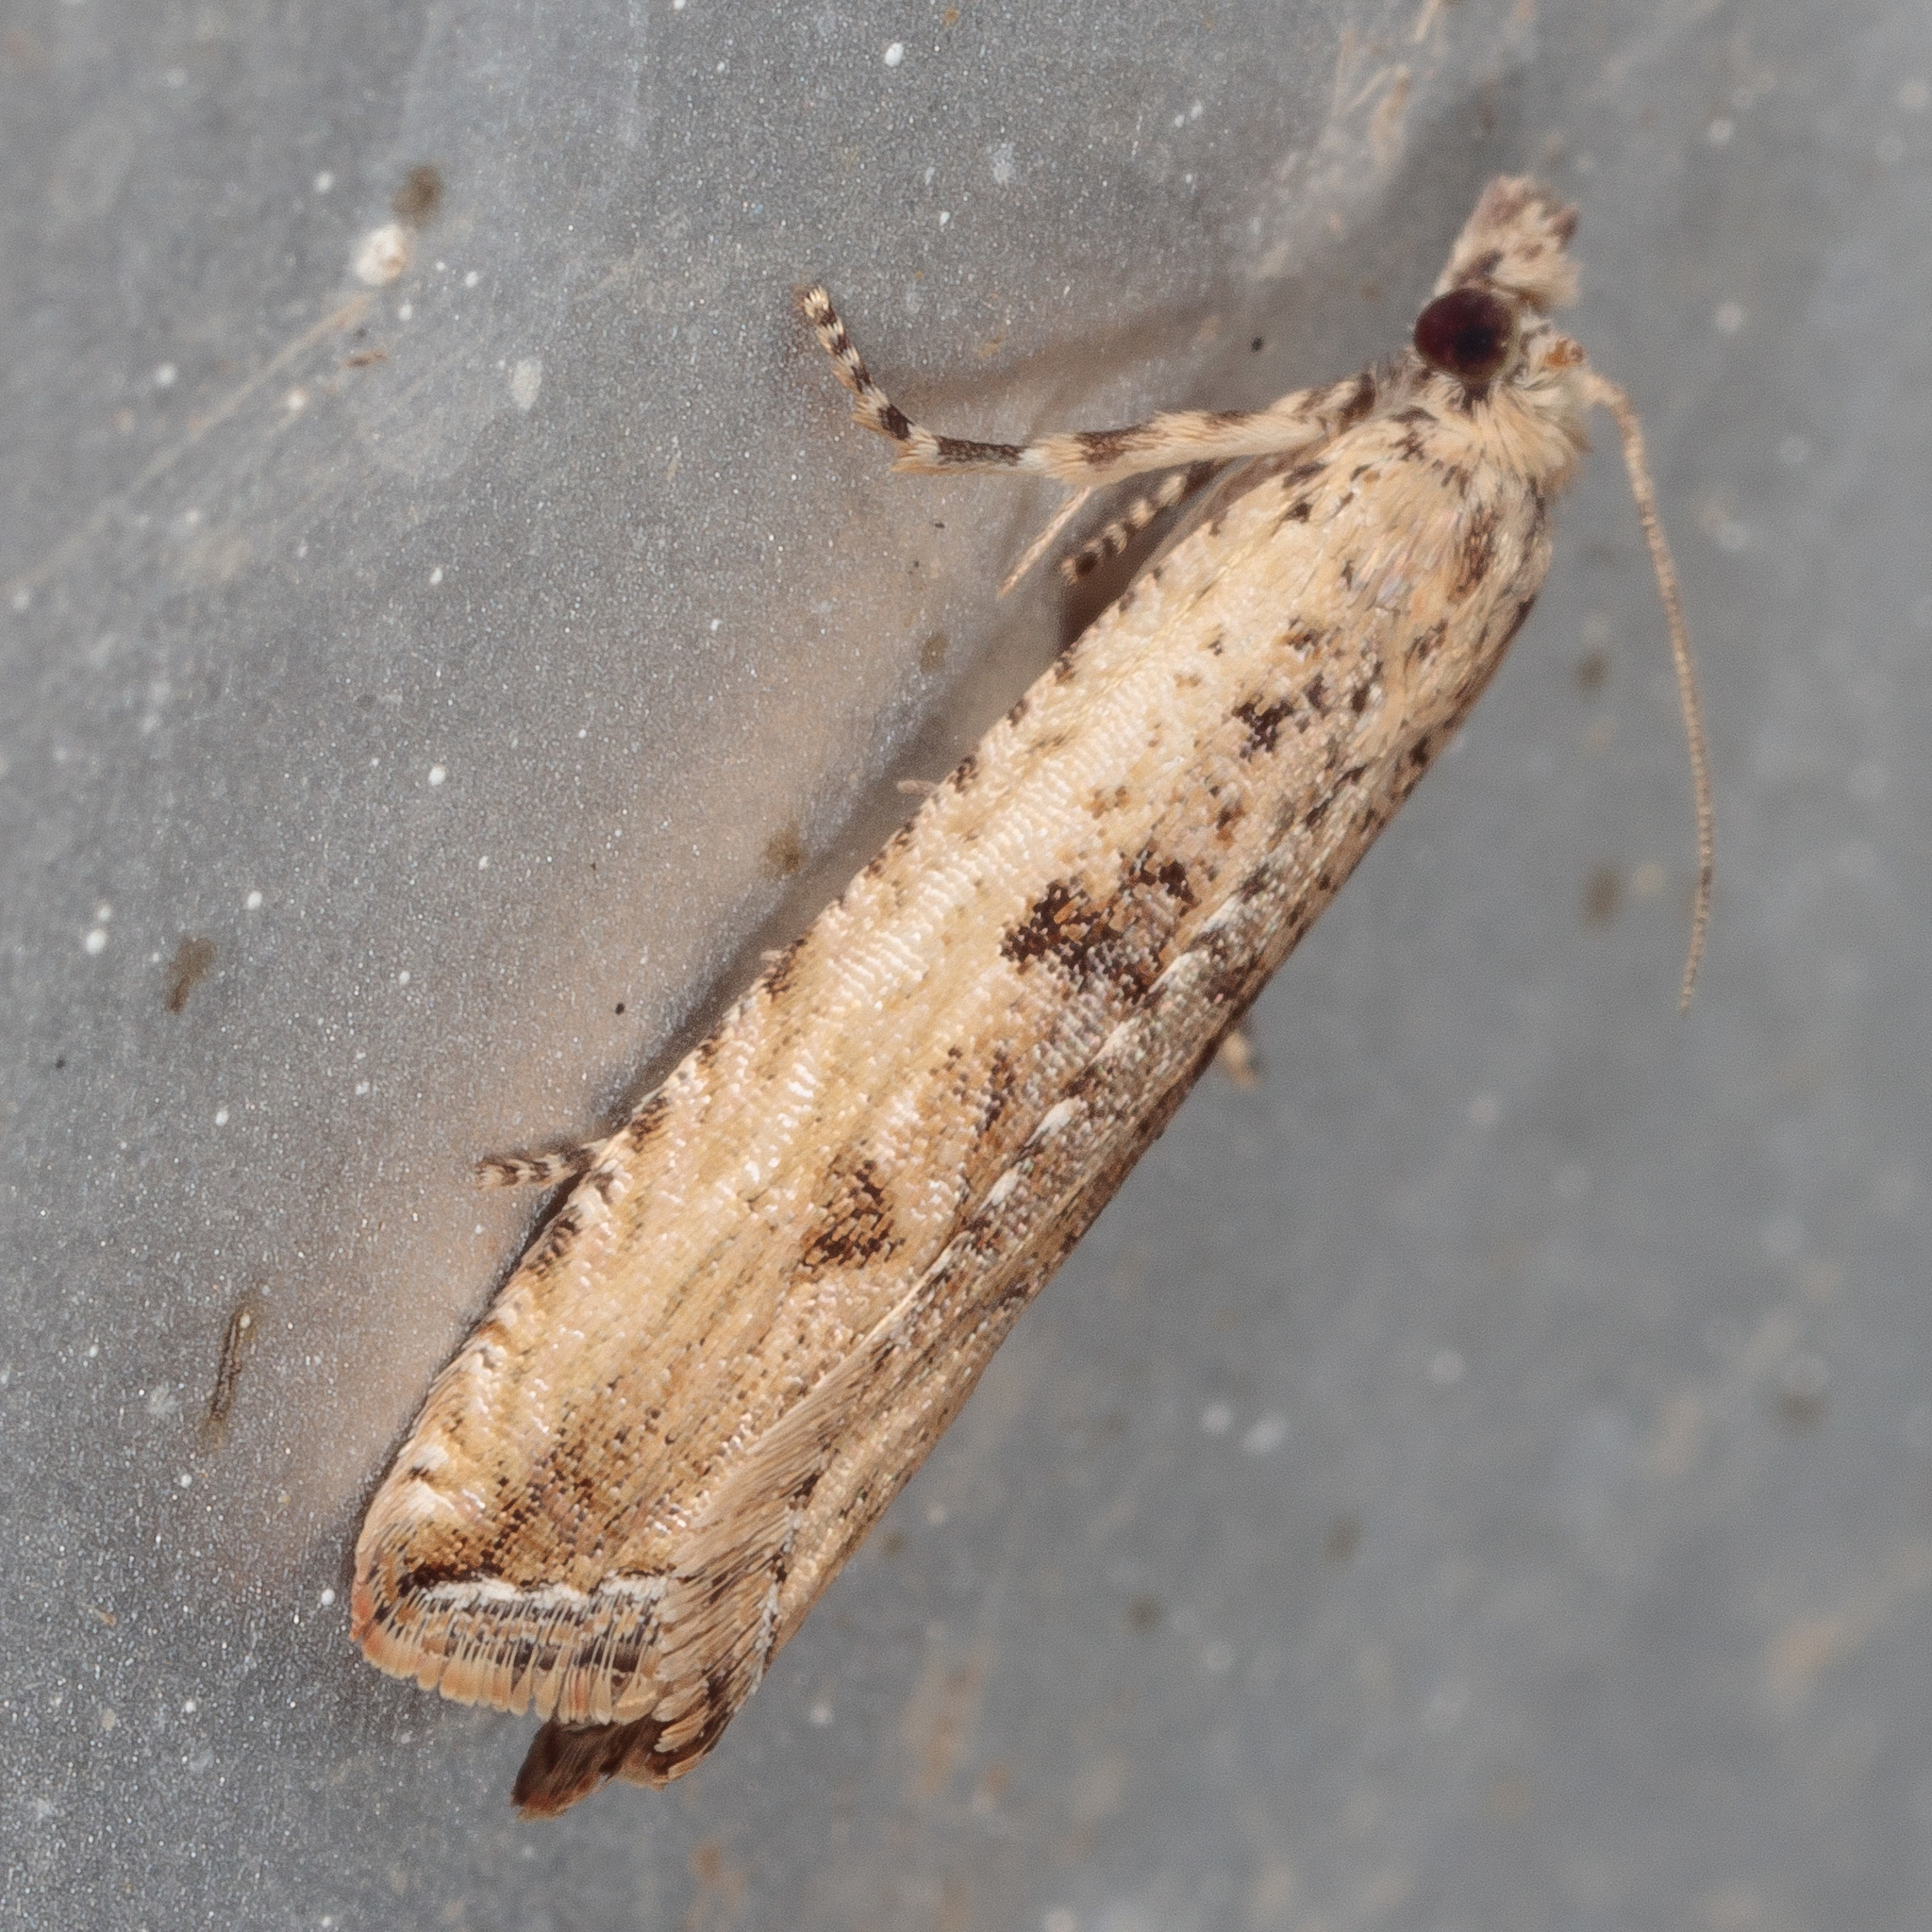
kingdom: Animalia
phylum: Arthropoda
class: Insecta
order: Lepidoptera
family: Tortricidae
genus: Bactra
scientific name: Bactra verutana
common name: Javelin moth
